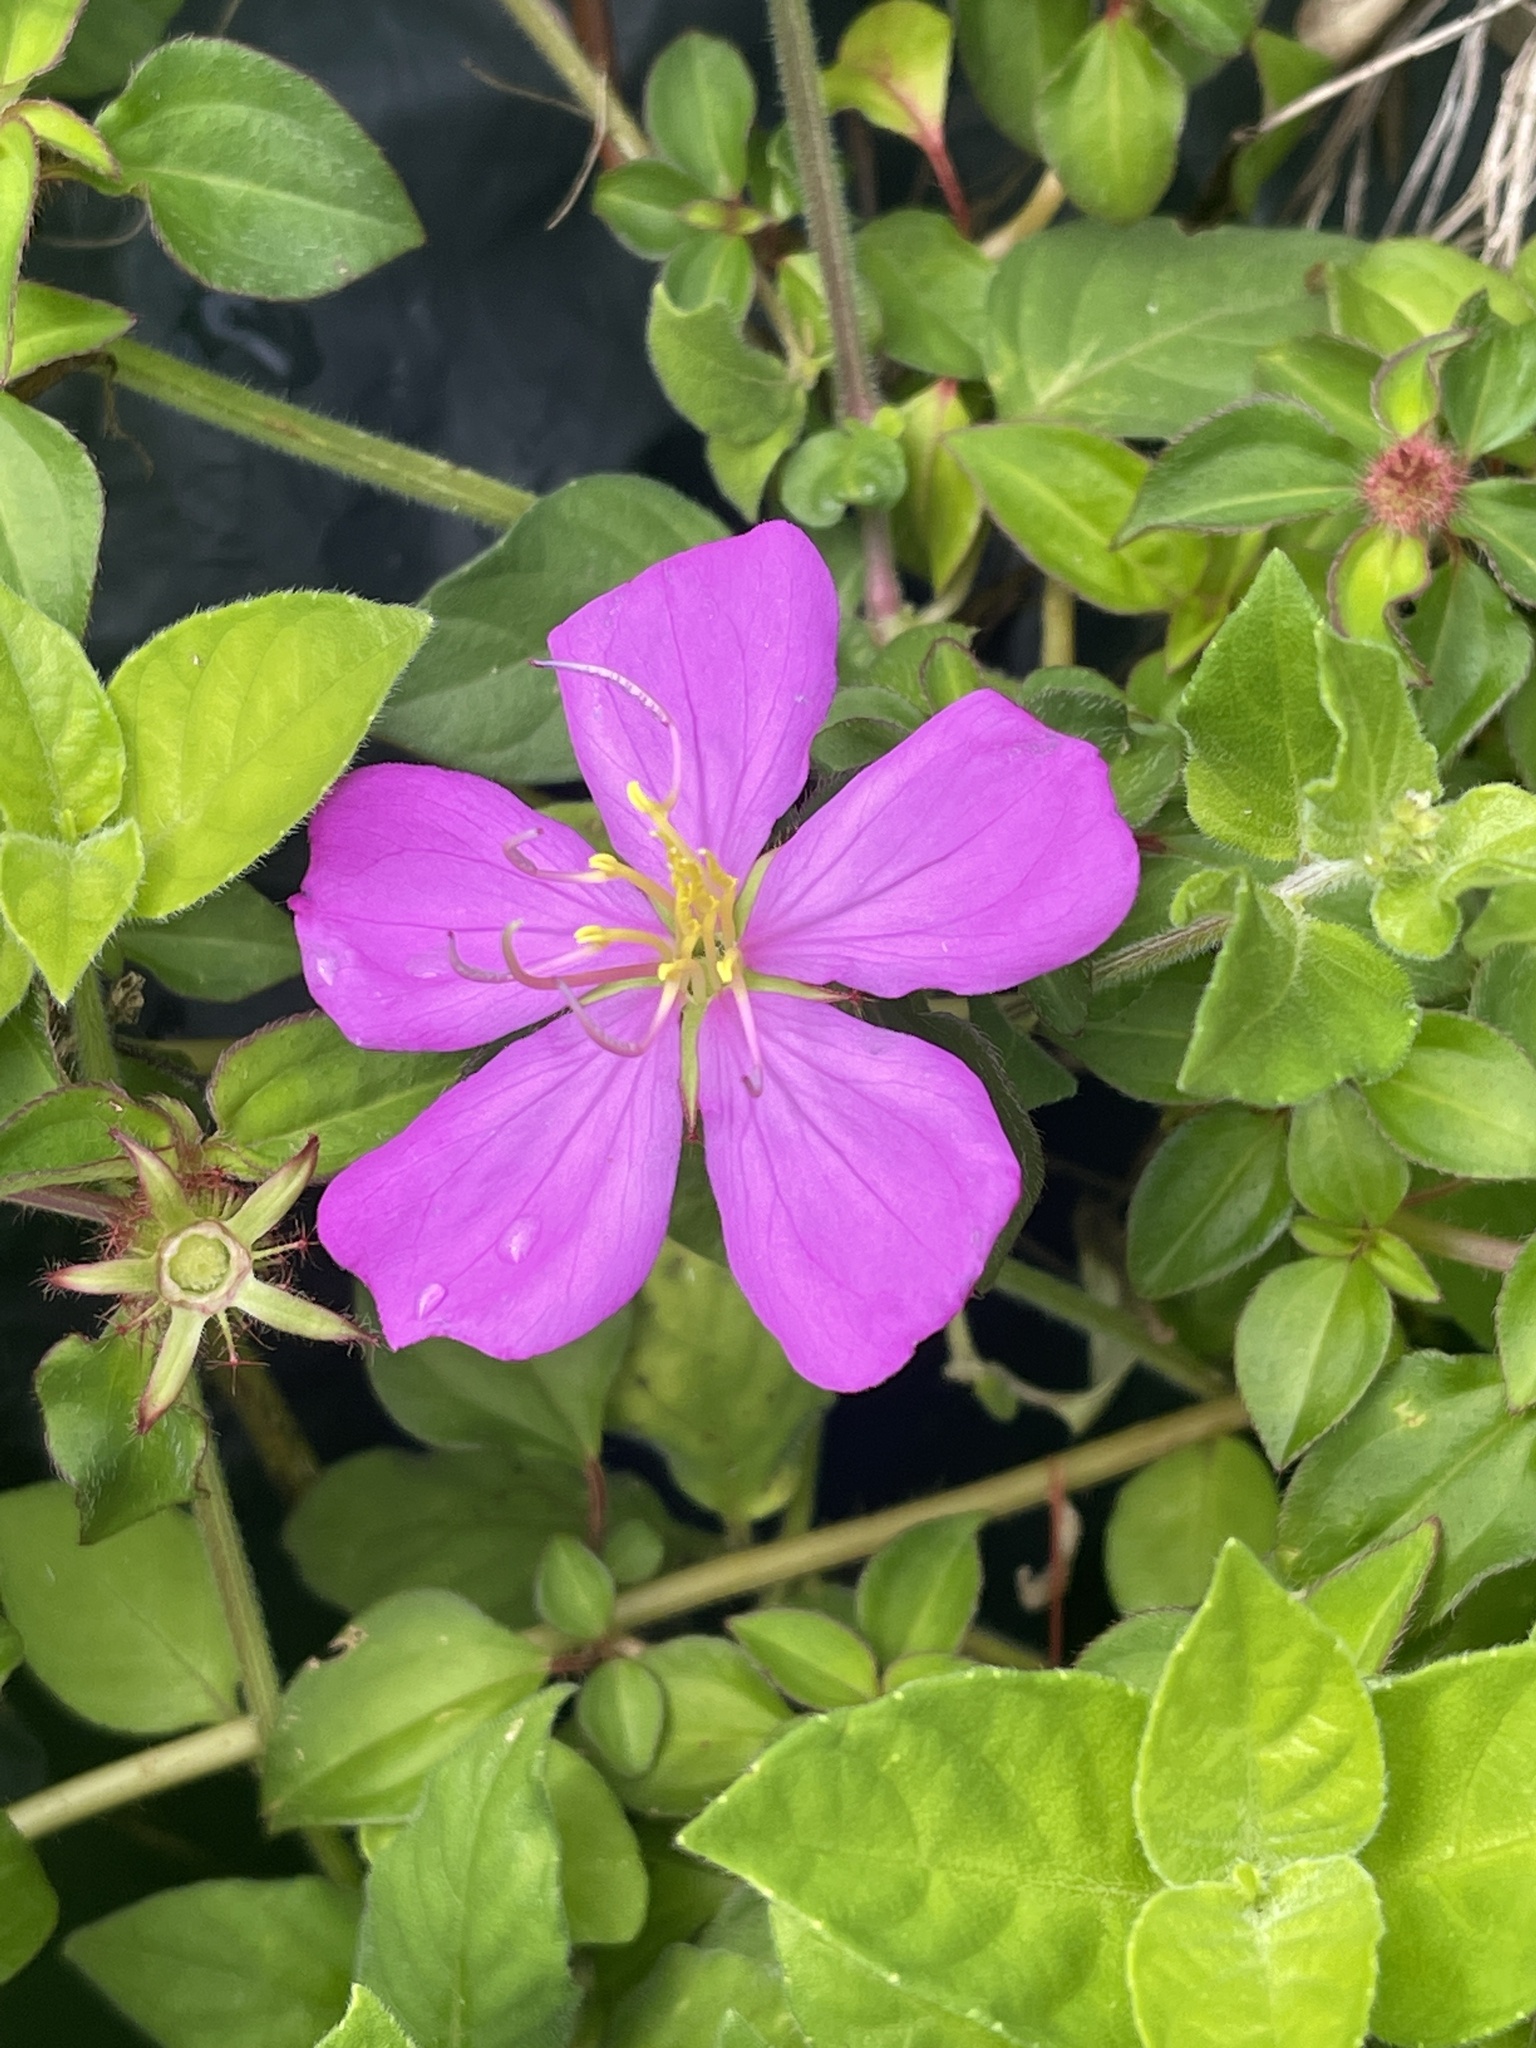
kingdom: Plantae
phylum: Tracheophyta
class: Magnoliopsida
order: Myrtales
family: Melastomataceae
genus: Heterotis
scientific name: Heterotis rotundifolia
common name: Pinklady
